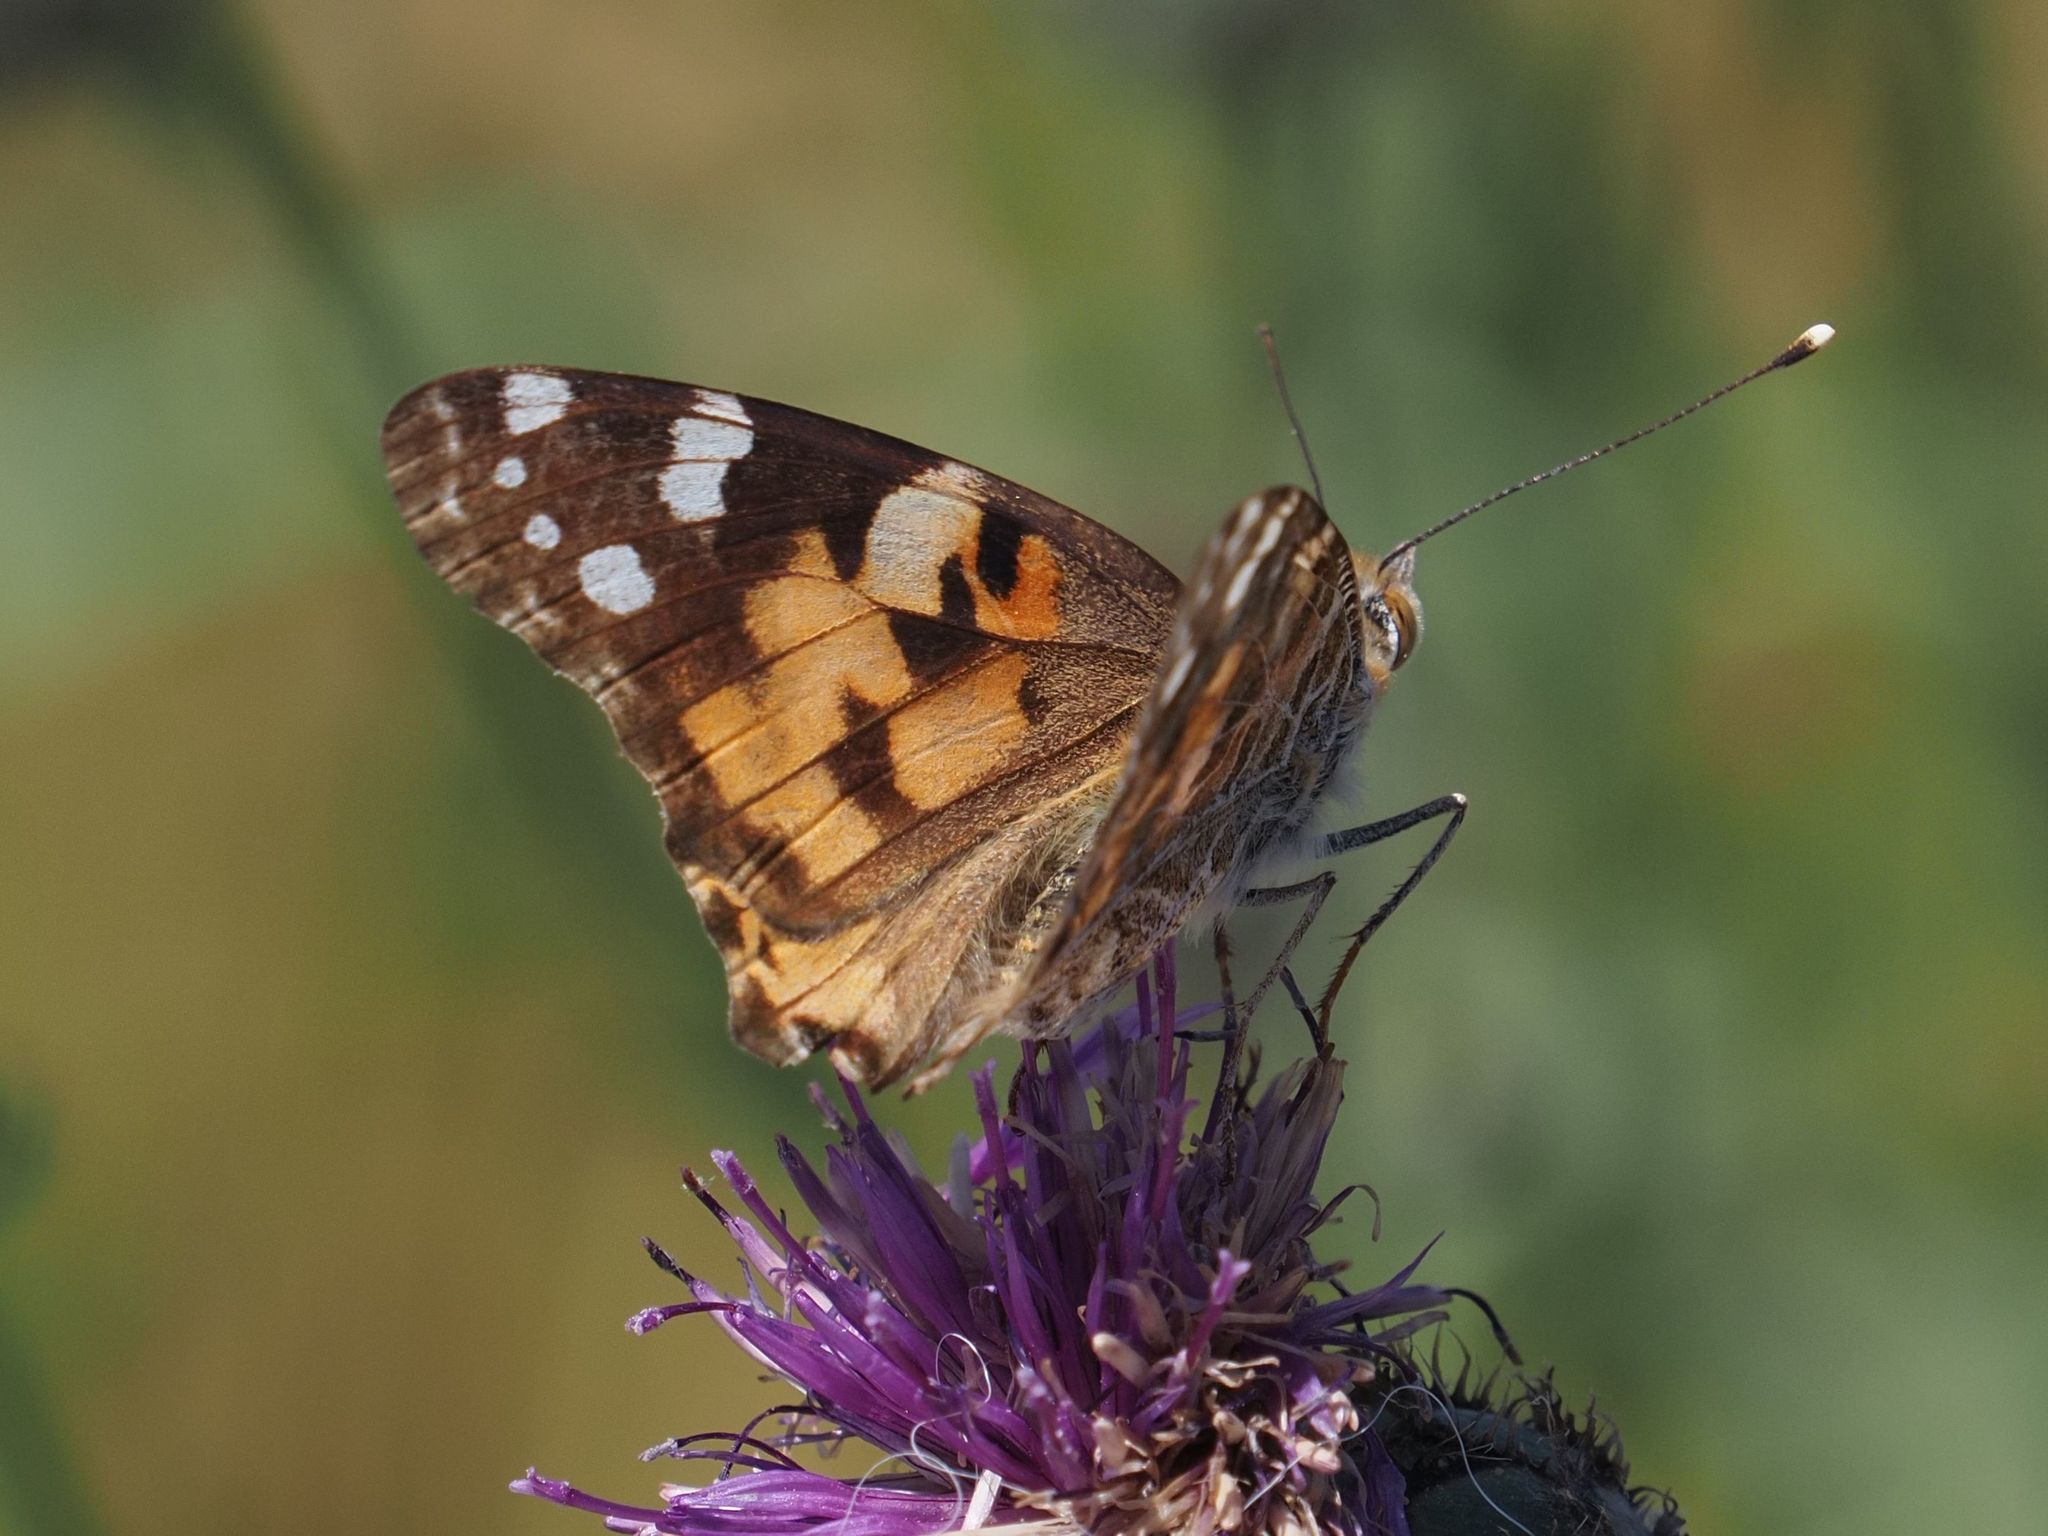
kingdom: Animalia
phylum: Arthropoda
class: Insecta
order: Lepidoptera
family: Nymphalidae
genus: Vanessa
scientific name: Vanessa cardui
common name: Painted lady
